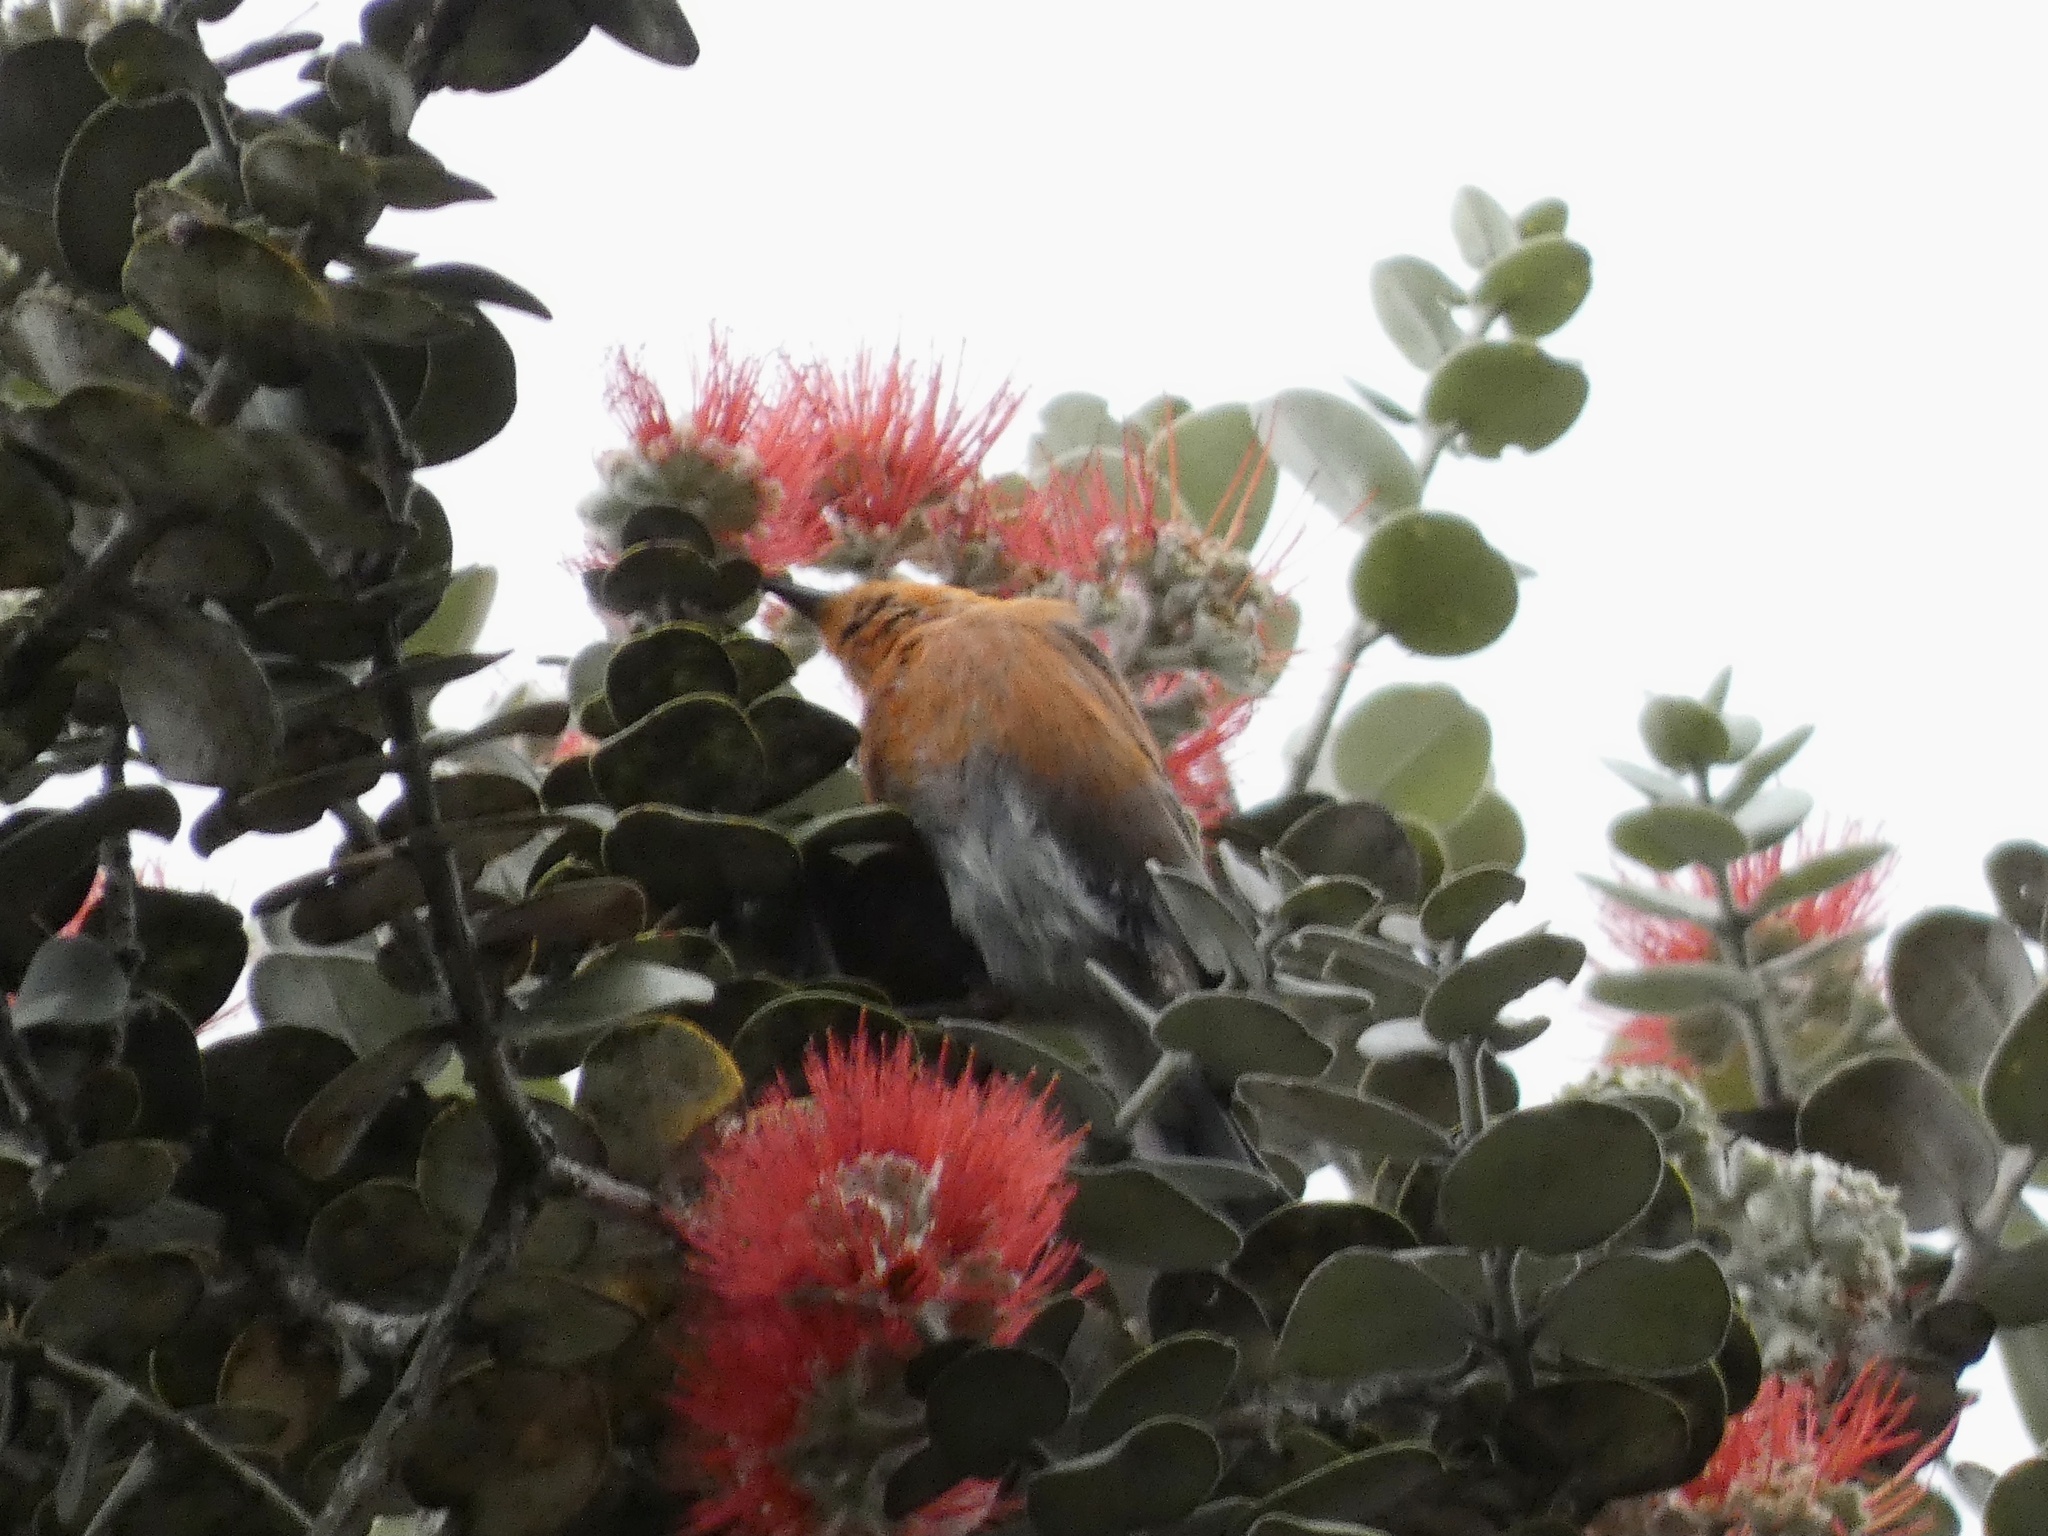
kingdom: Animalia
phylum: Chordata
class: Aves
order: Passeriformes
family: Fringillidae
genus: Himatione
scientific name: Himatione sanguinea
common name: Apapane
